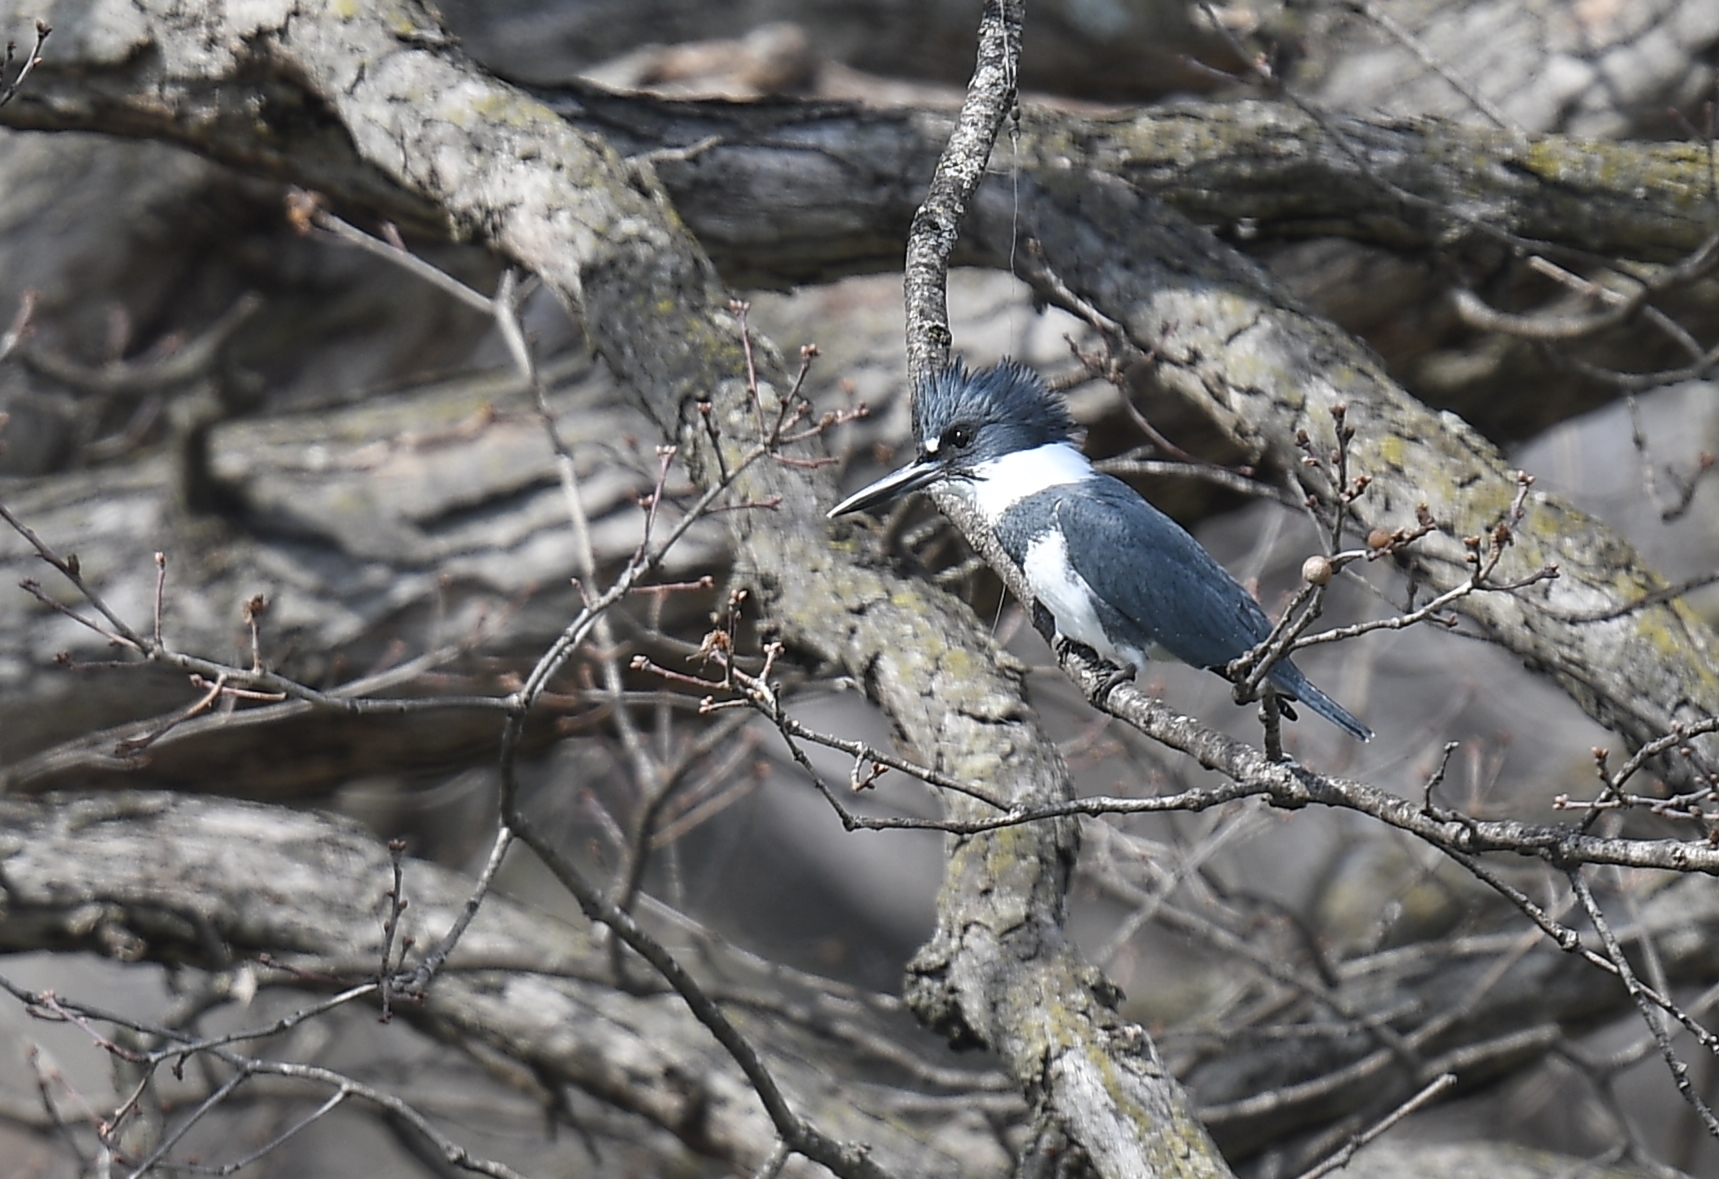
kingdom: Animalia
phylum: Chordata
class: Aves
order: Coraciiformes
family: Alcedinidae
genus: Megaceryle
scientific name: Megaceryle alcyon
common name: Belted kingfisher
